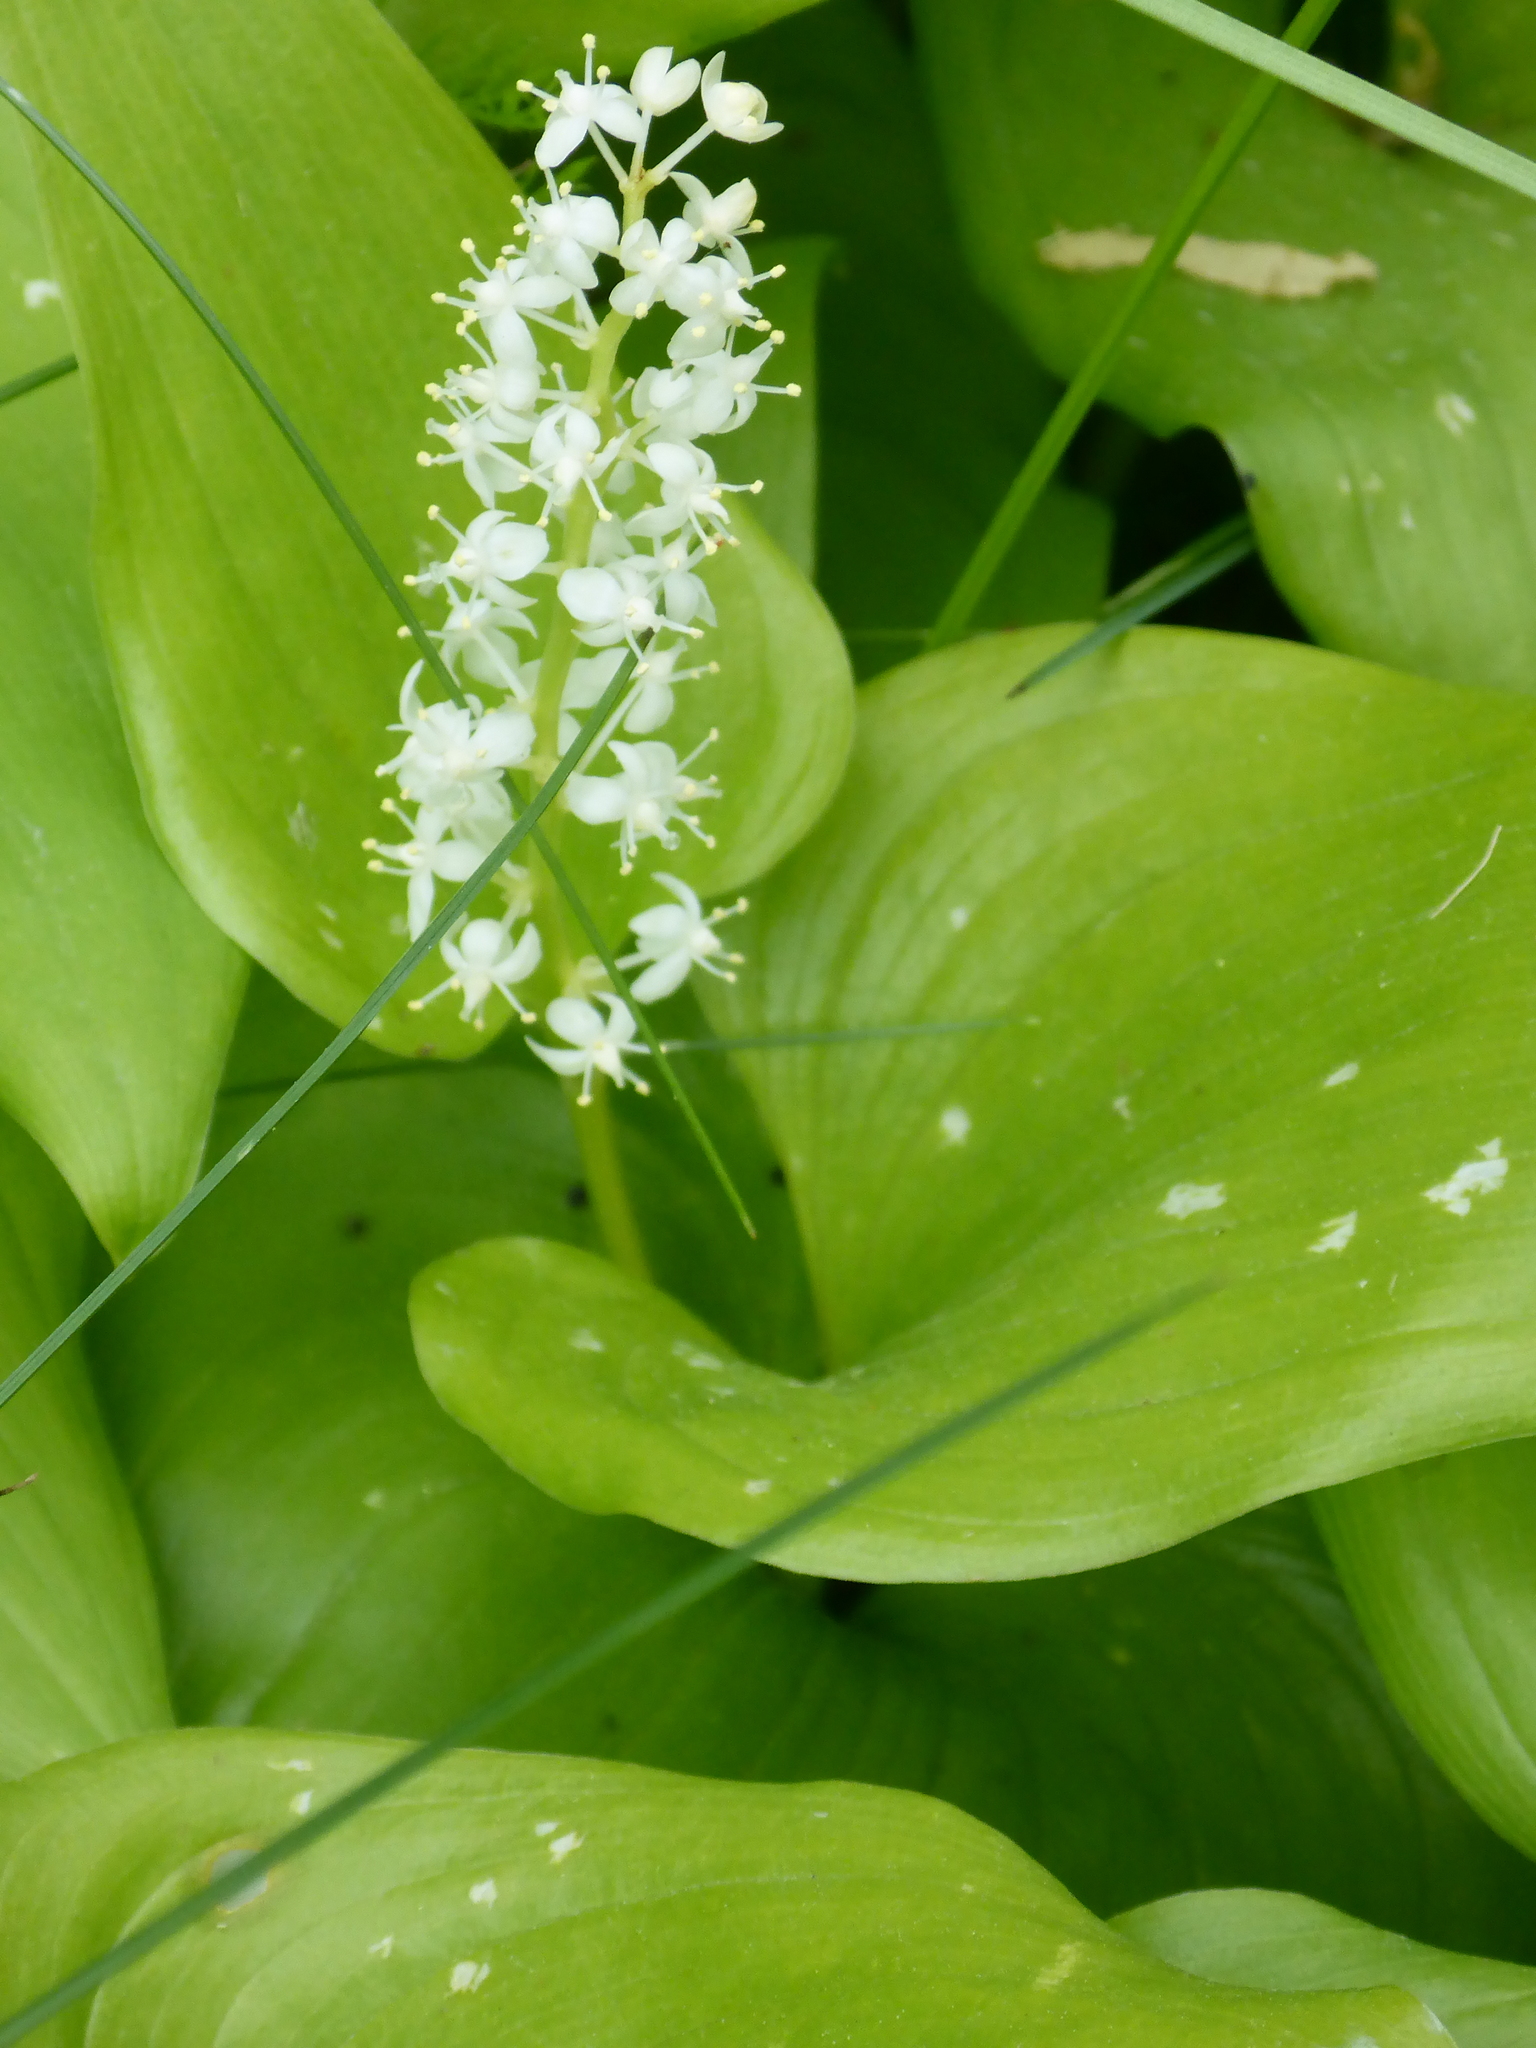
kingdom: Plantae
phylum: Tracheophyta
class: Liliopsida
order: Asparagales
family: Asparagaceae
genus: Maianthemum
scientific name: Maianthemum dilatatum
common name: False lily-of-the-valley
